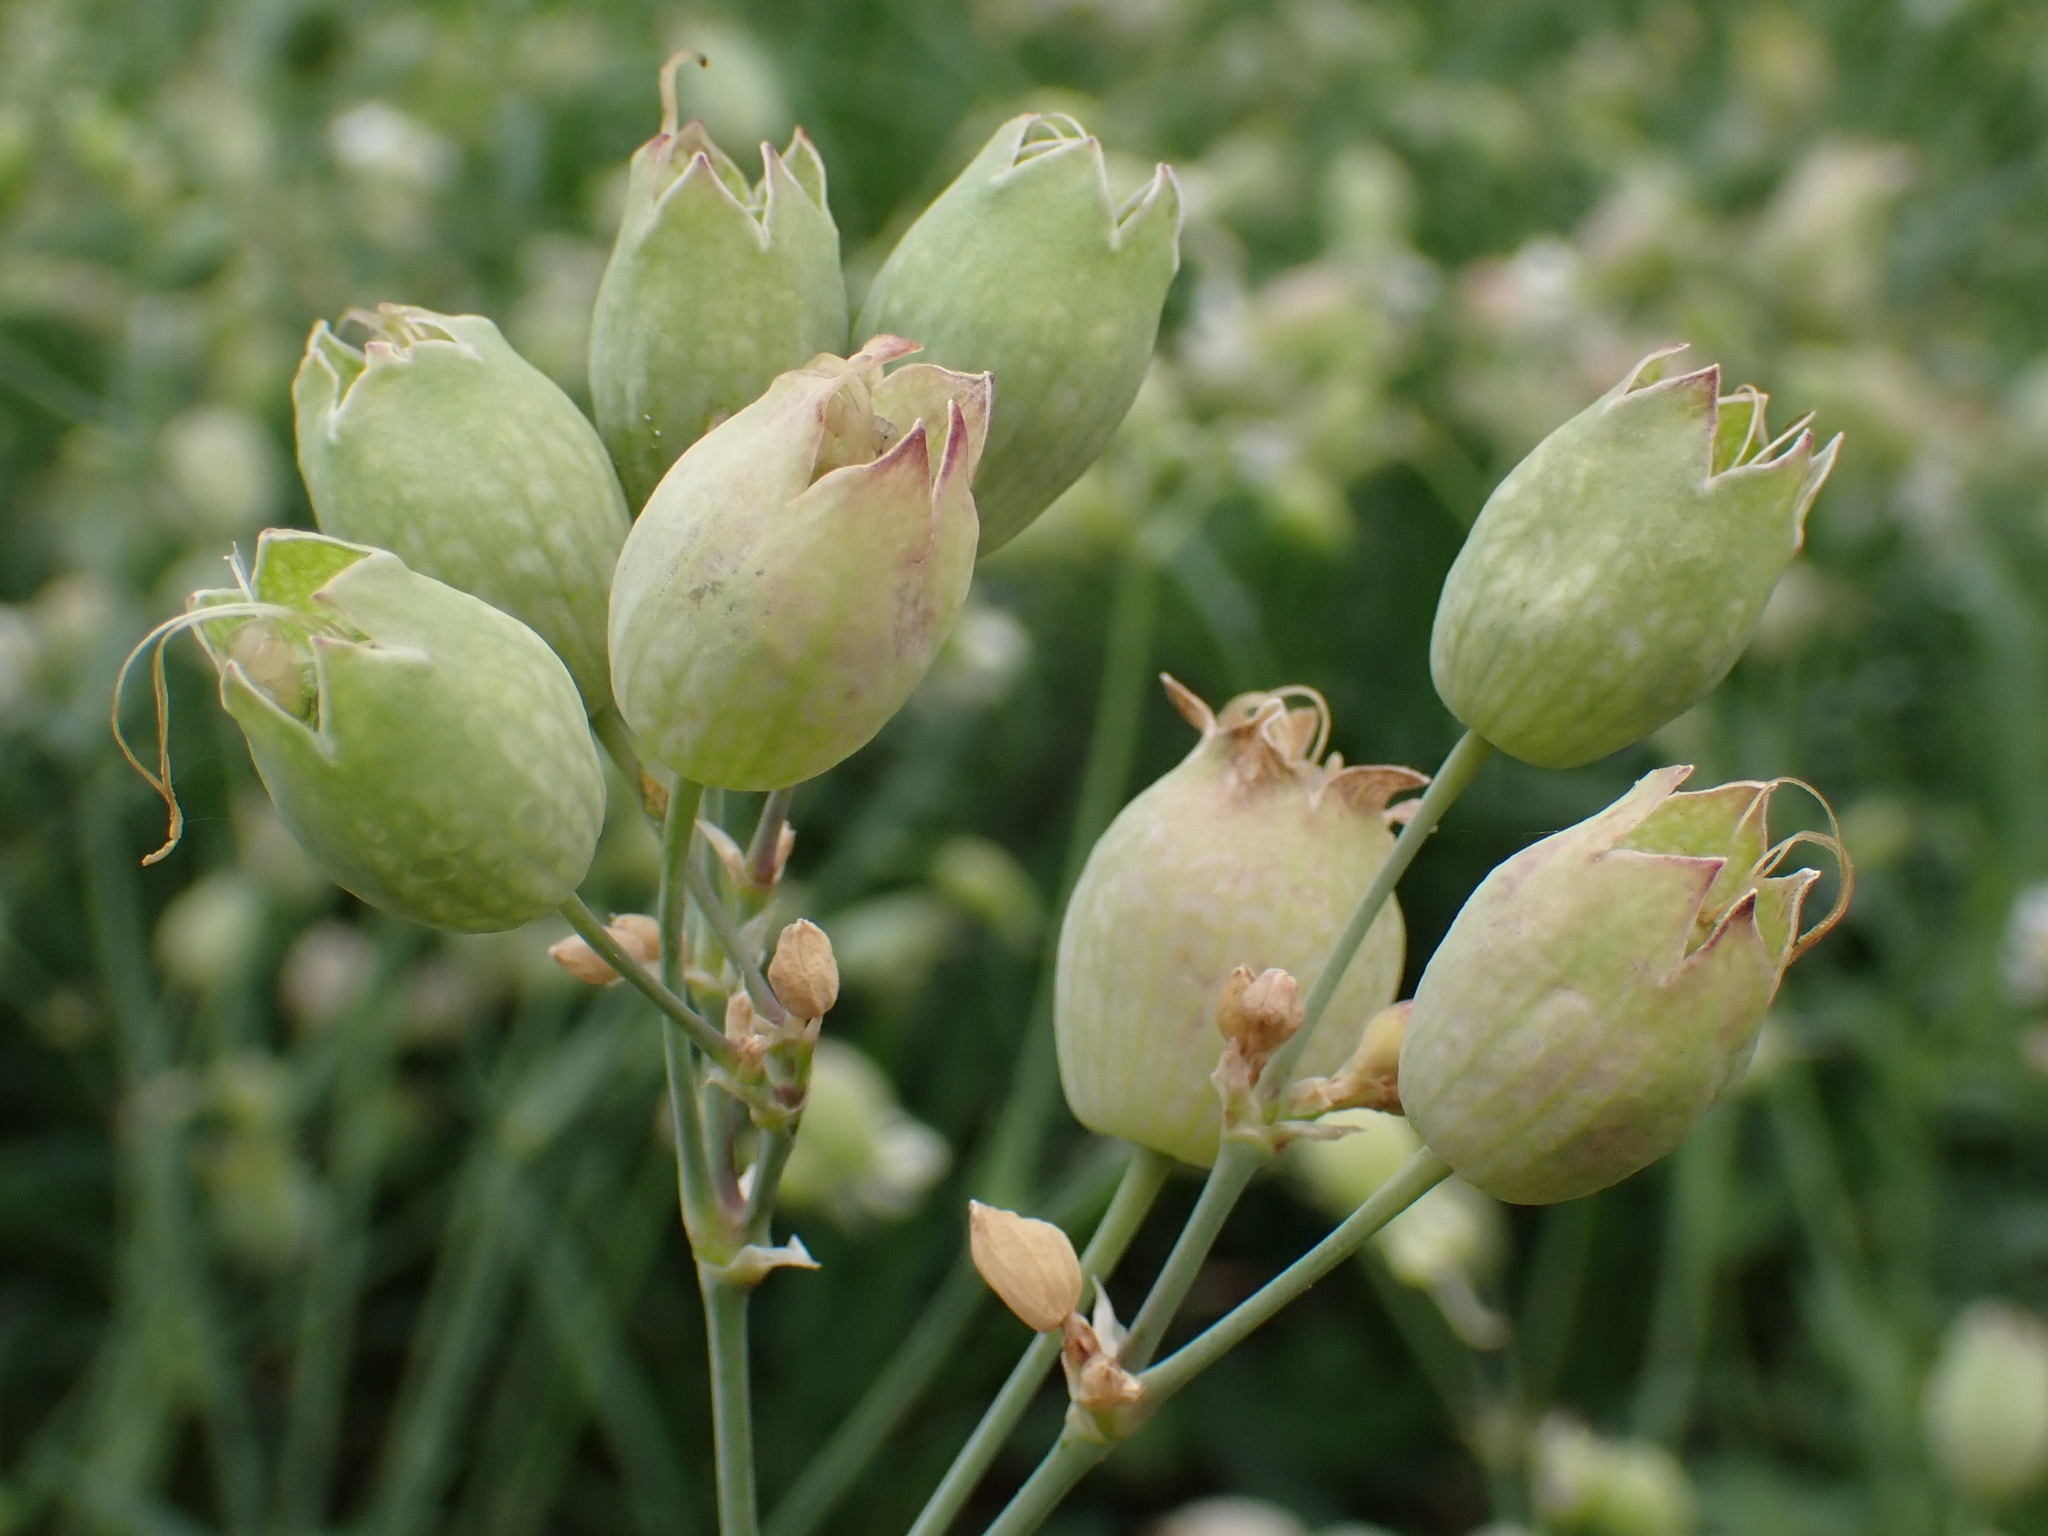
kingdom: Plantae
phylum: Tracheophyta
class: Magnoliopsida
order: Caryophyllales
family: Caryophyllaceae
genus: Silene
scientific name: Silene vulgaris
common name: Bladder campion
